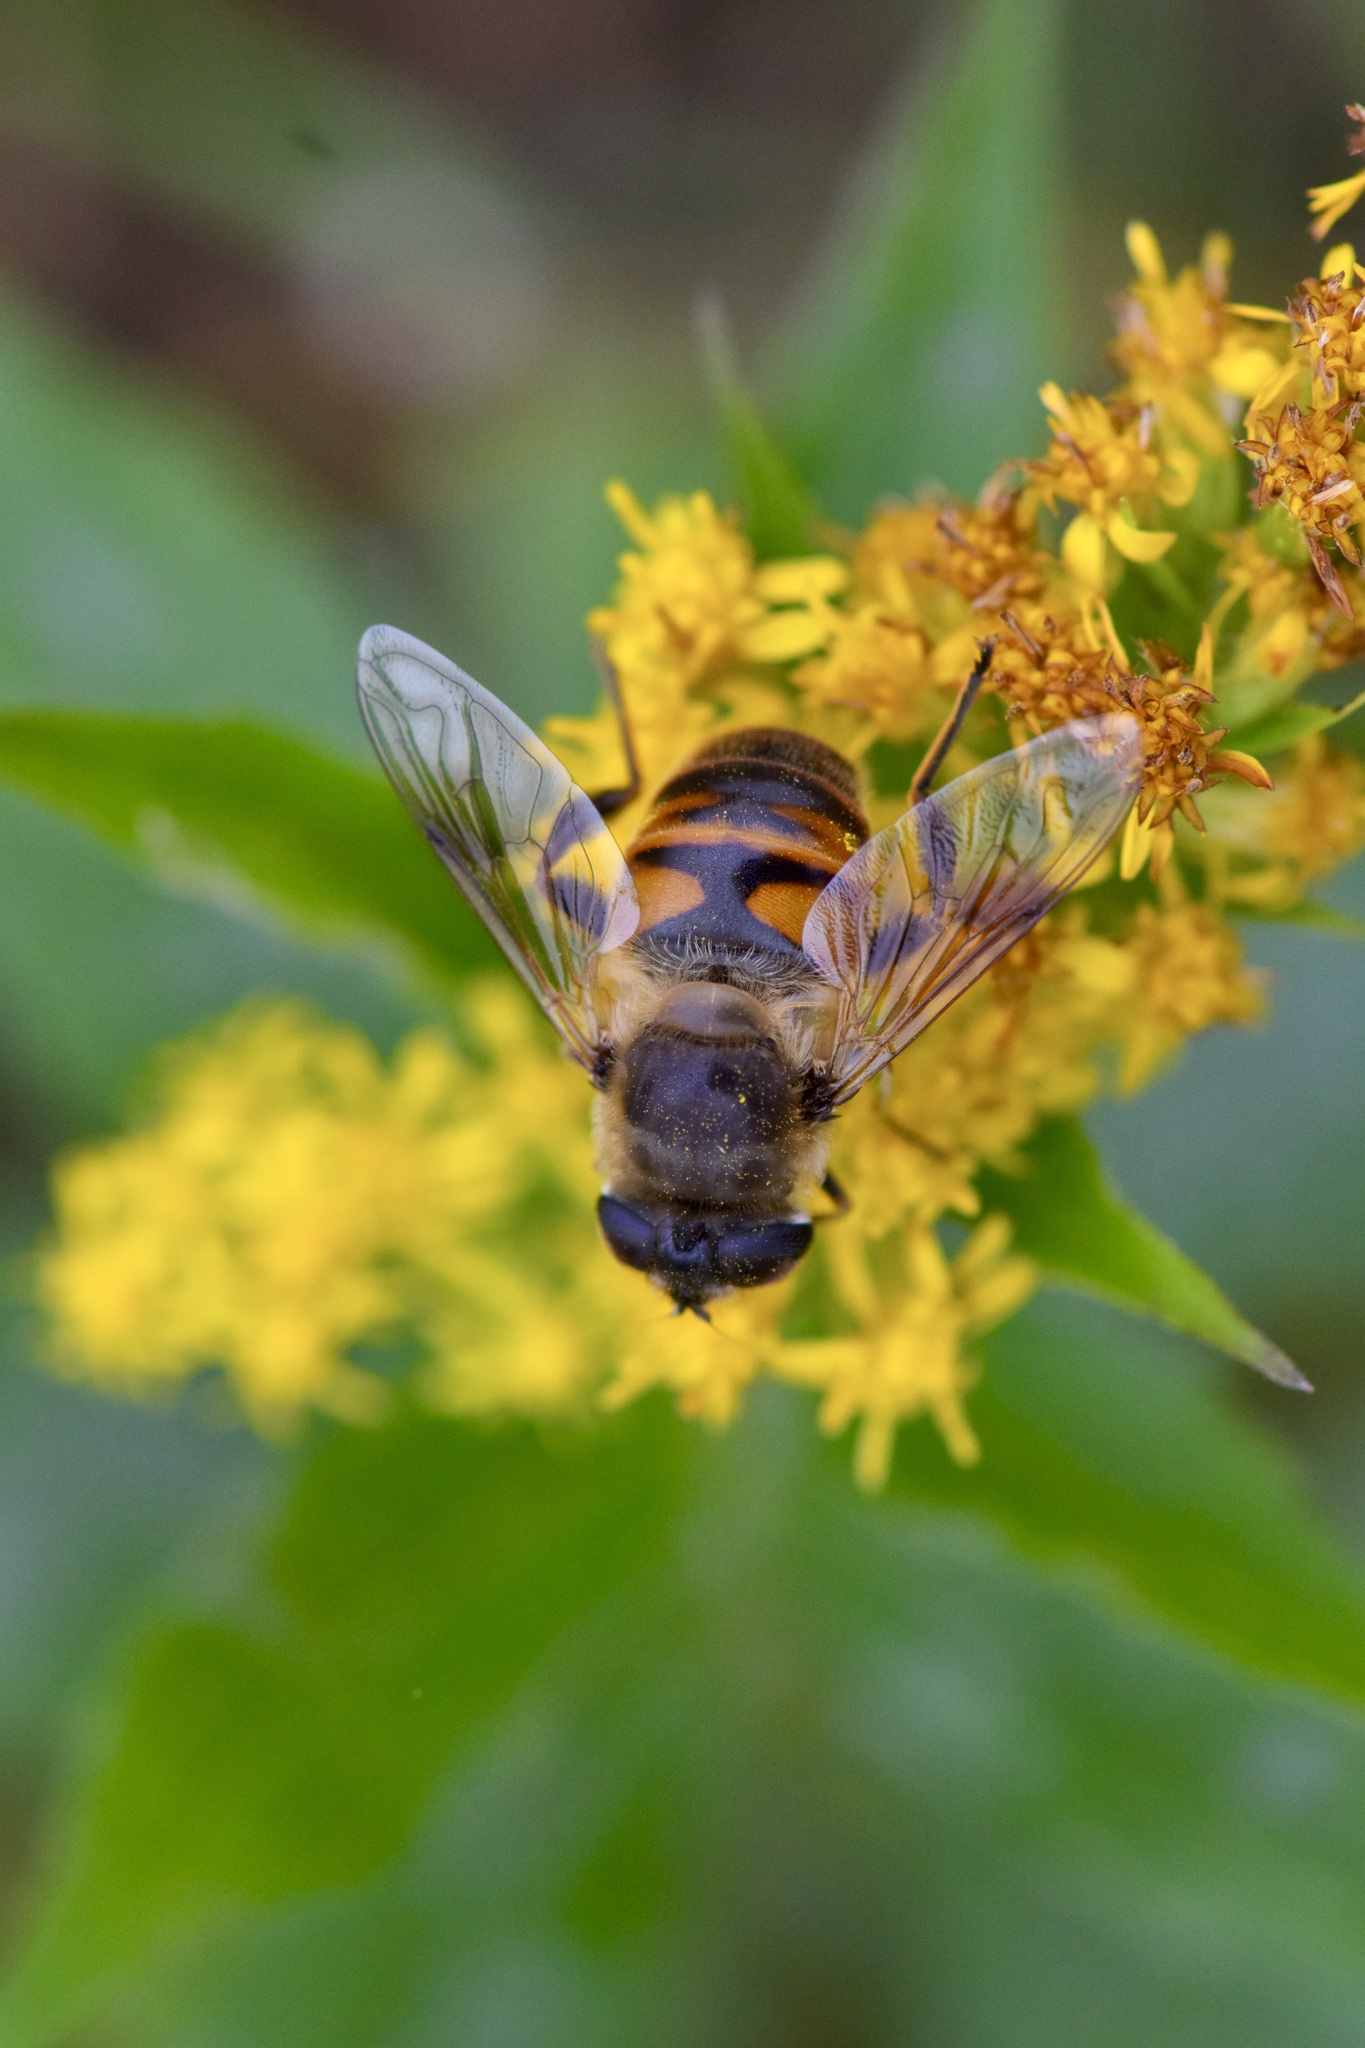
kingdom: Animalia
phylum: Arthropoda
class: Insecta
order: Diptera
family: Syrphidae
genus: Eristalis
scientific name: Eristalis tenax
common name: Drone fly
